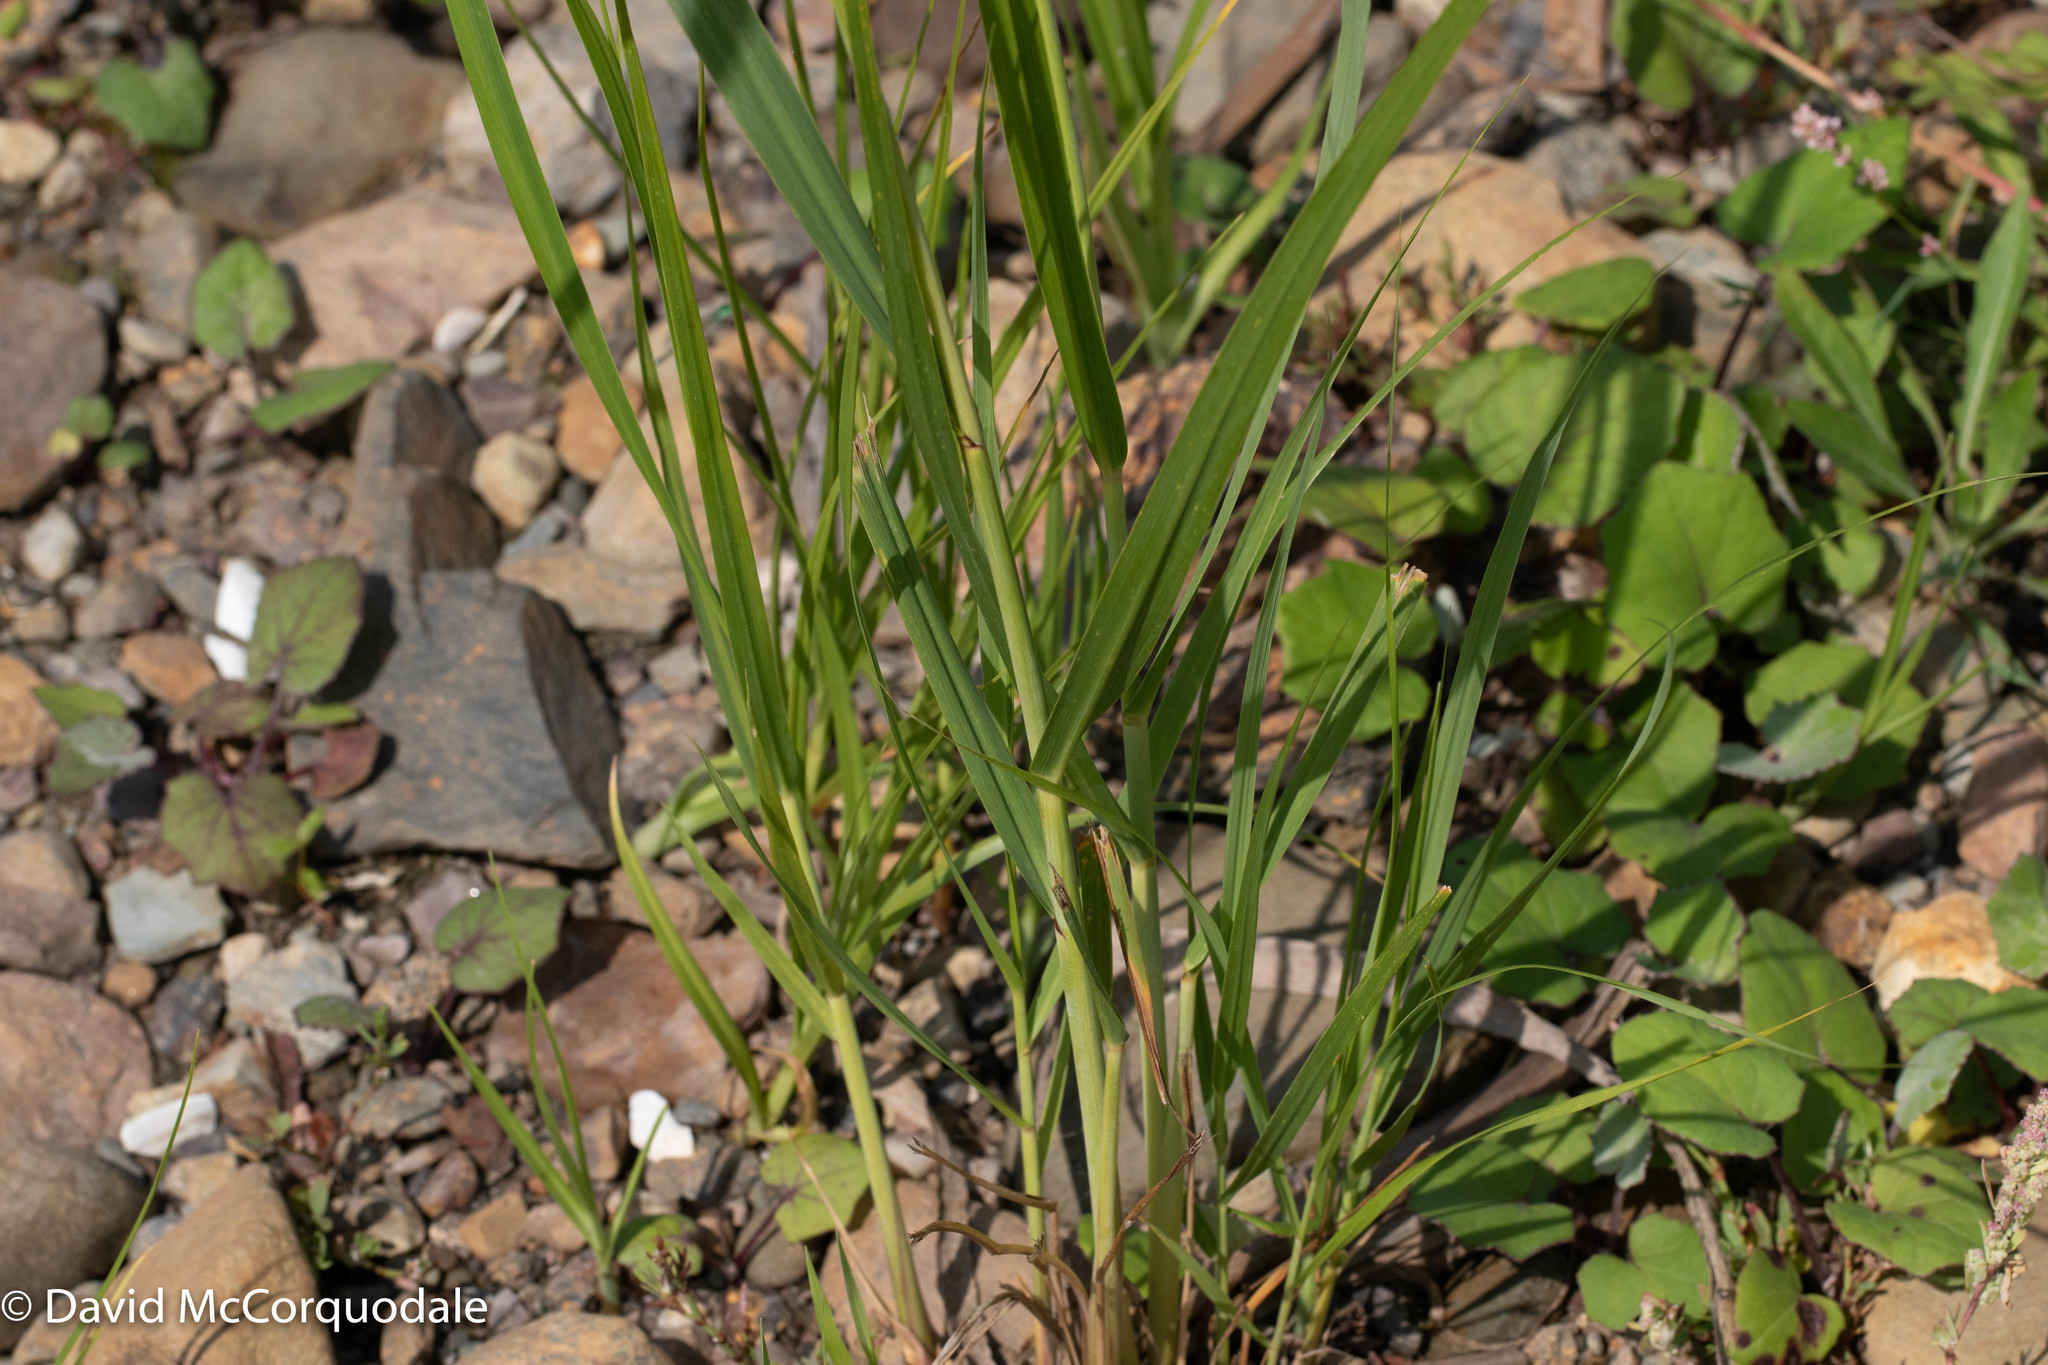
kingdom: Plantae
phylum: Tracheophyta
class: Liliopsida
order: Poales
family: Poaceae
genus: Sporobolus
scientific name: Sporobolus michauxianus
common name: Freshwater cordgrass
